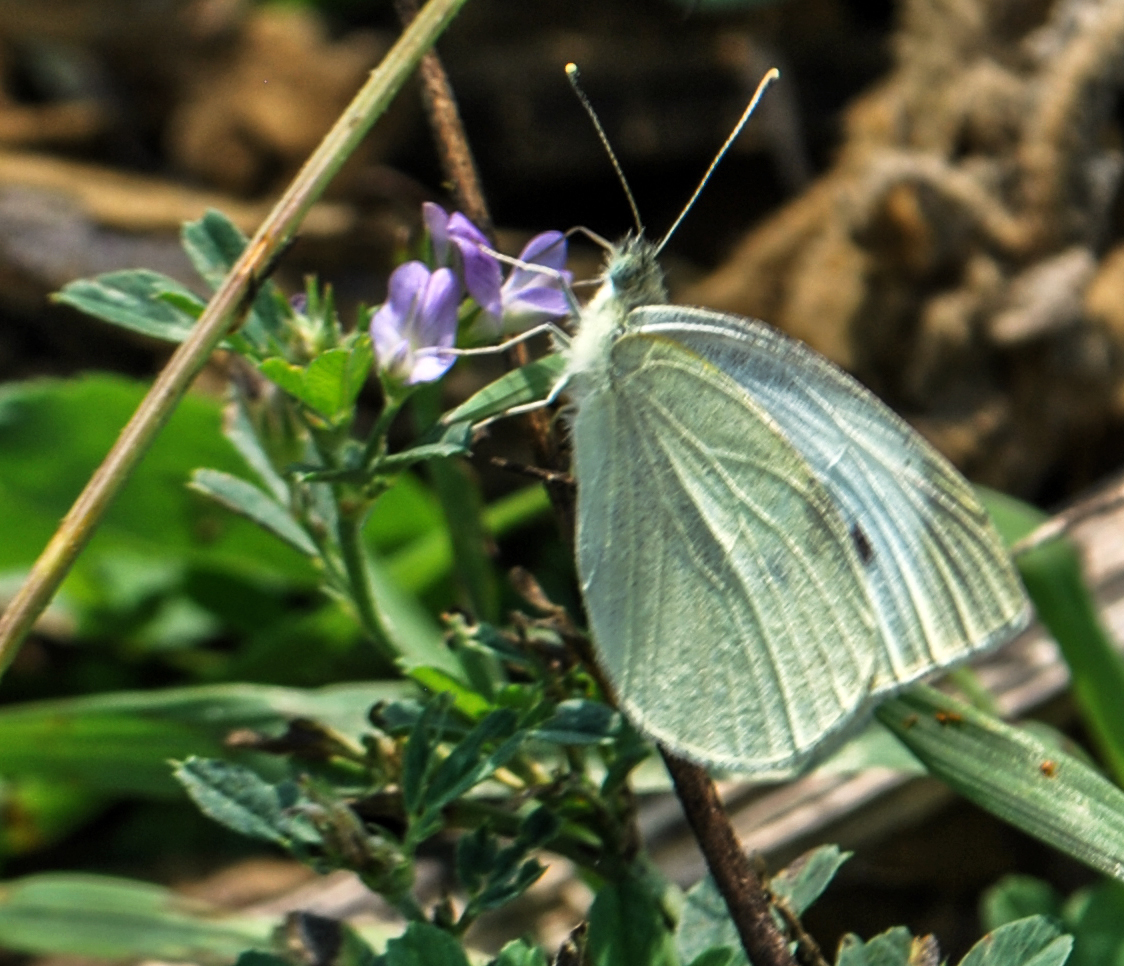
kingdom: Animalia
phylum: Arthropoda
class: Insecta
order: Lepidoptera
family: Pieridae
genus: Pieris
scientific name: Pieris rapae
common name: Small white
